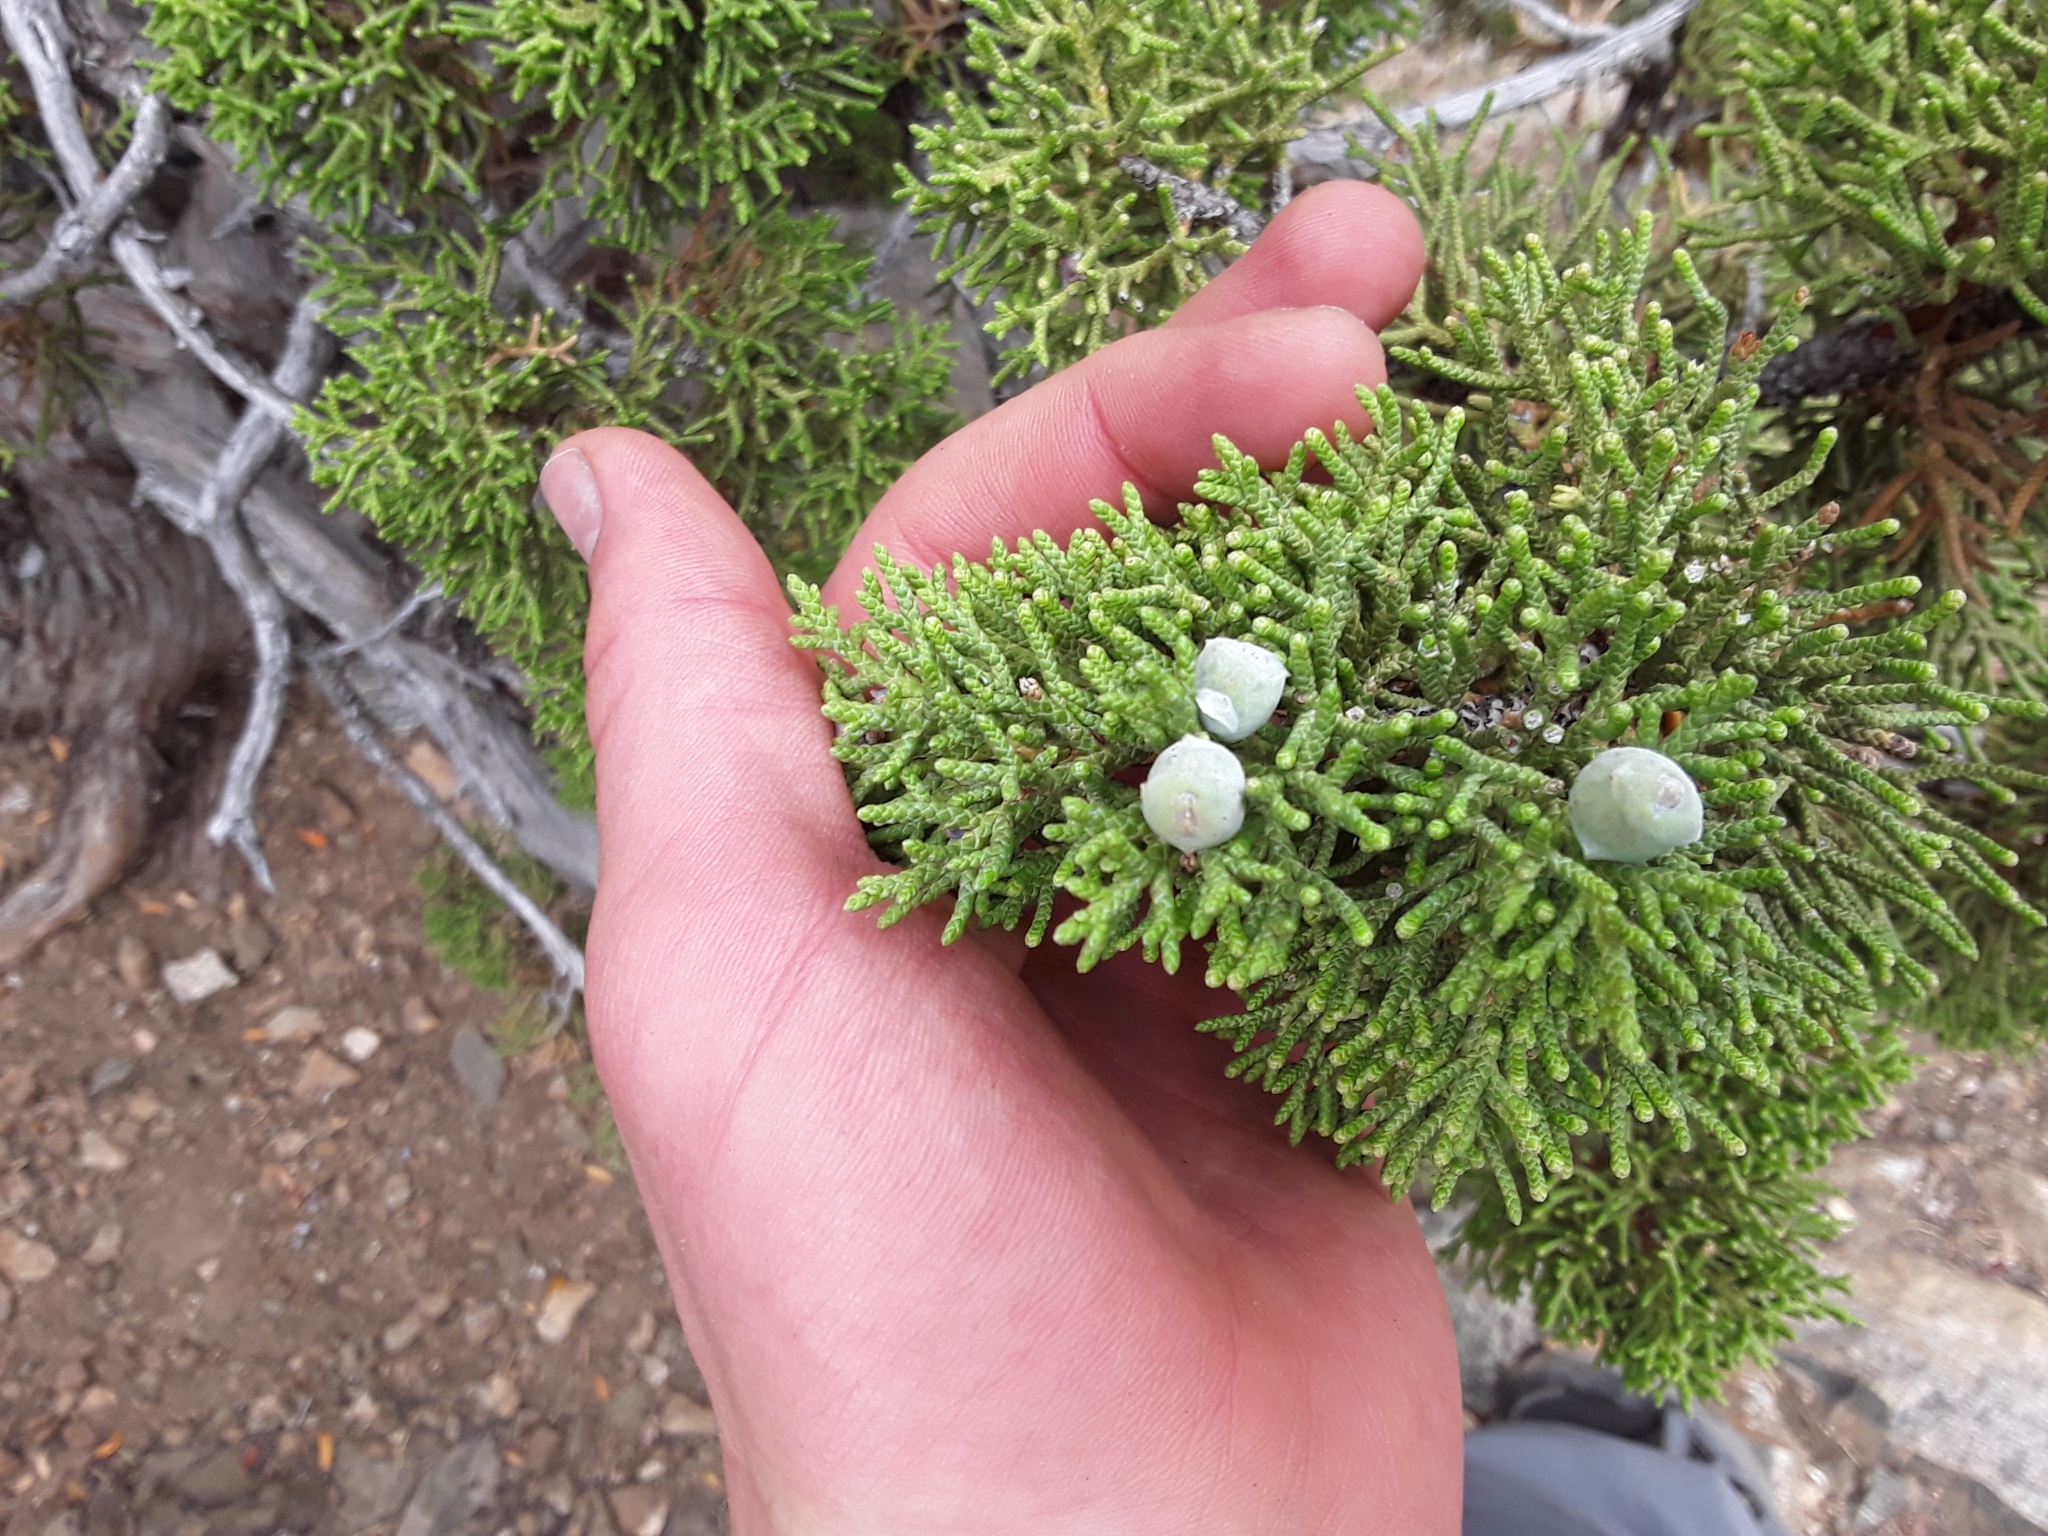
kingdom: Plantae
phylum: Tracheophyta
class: Pinopsida
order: Pinales
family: Cupressaceae
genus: Juniperus
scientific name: Juniperus osteosperma
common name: Utah juniper
